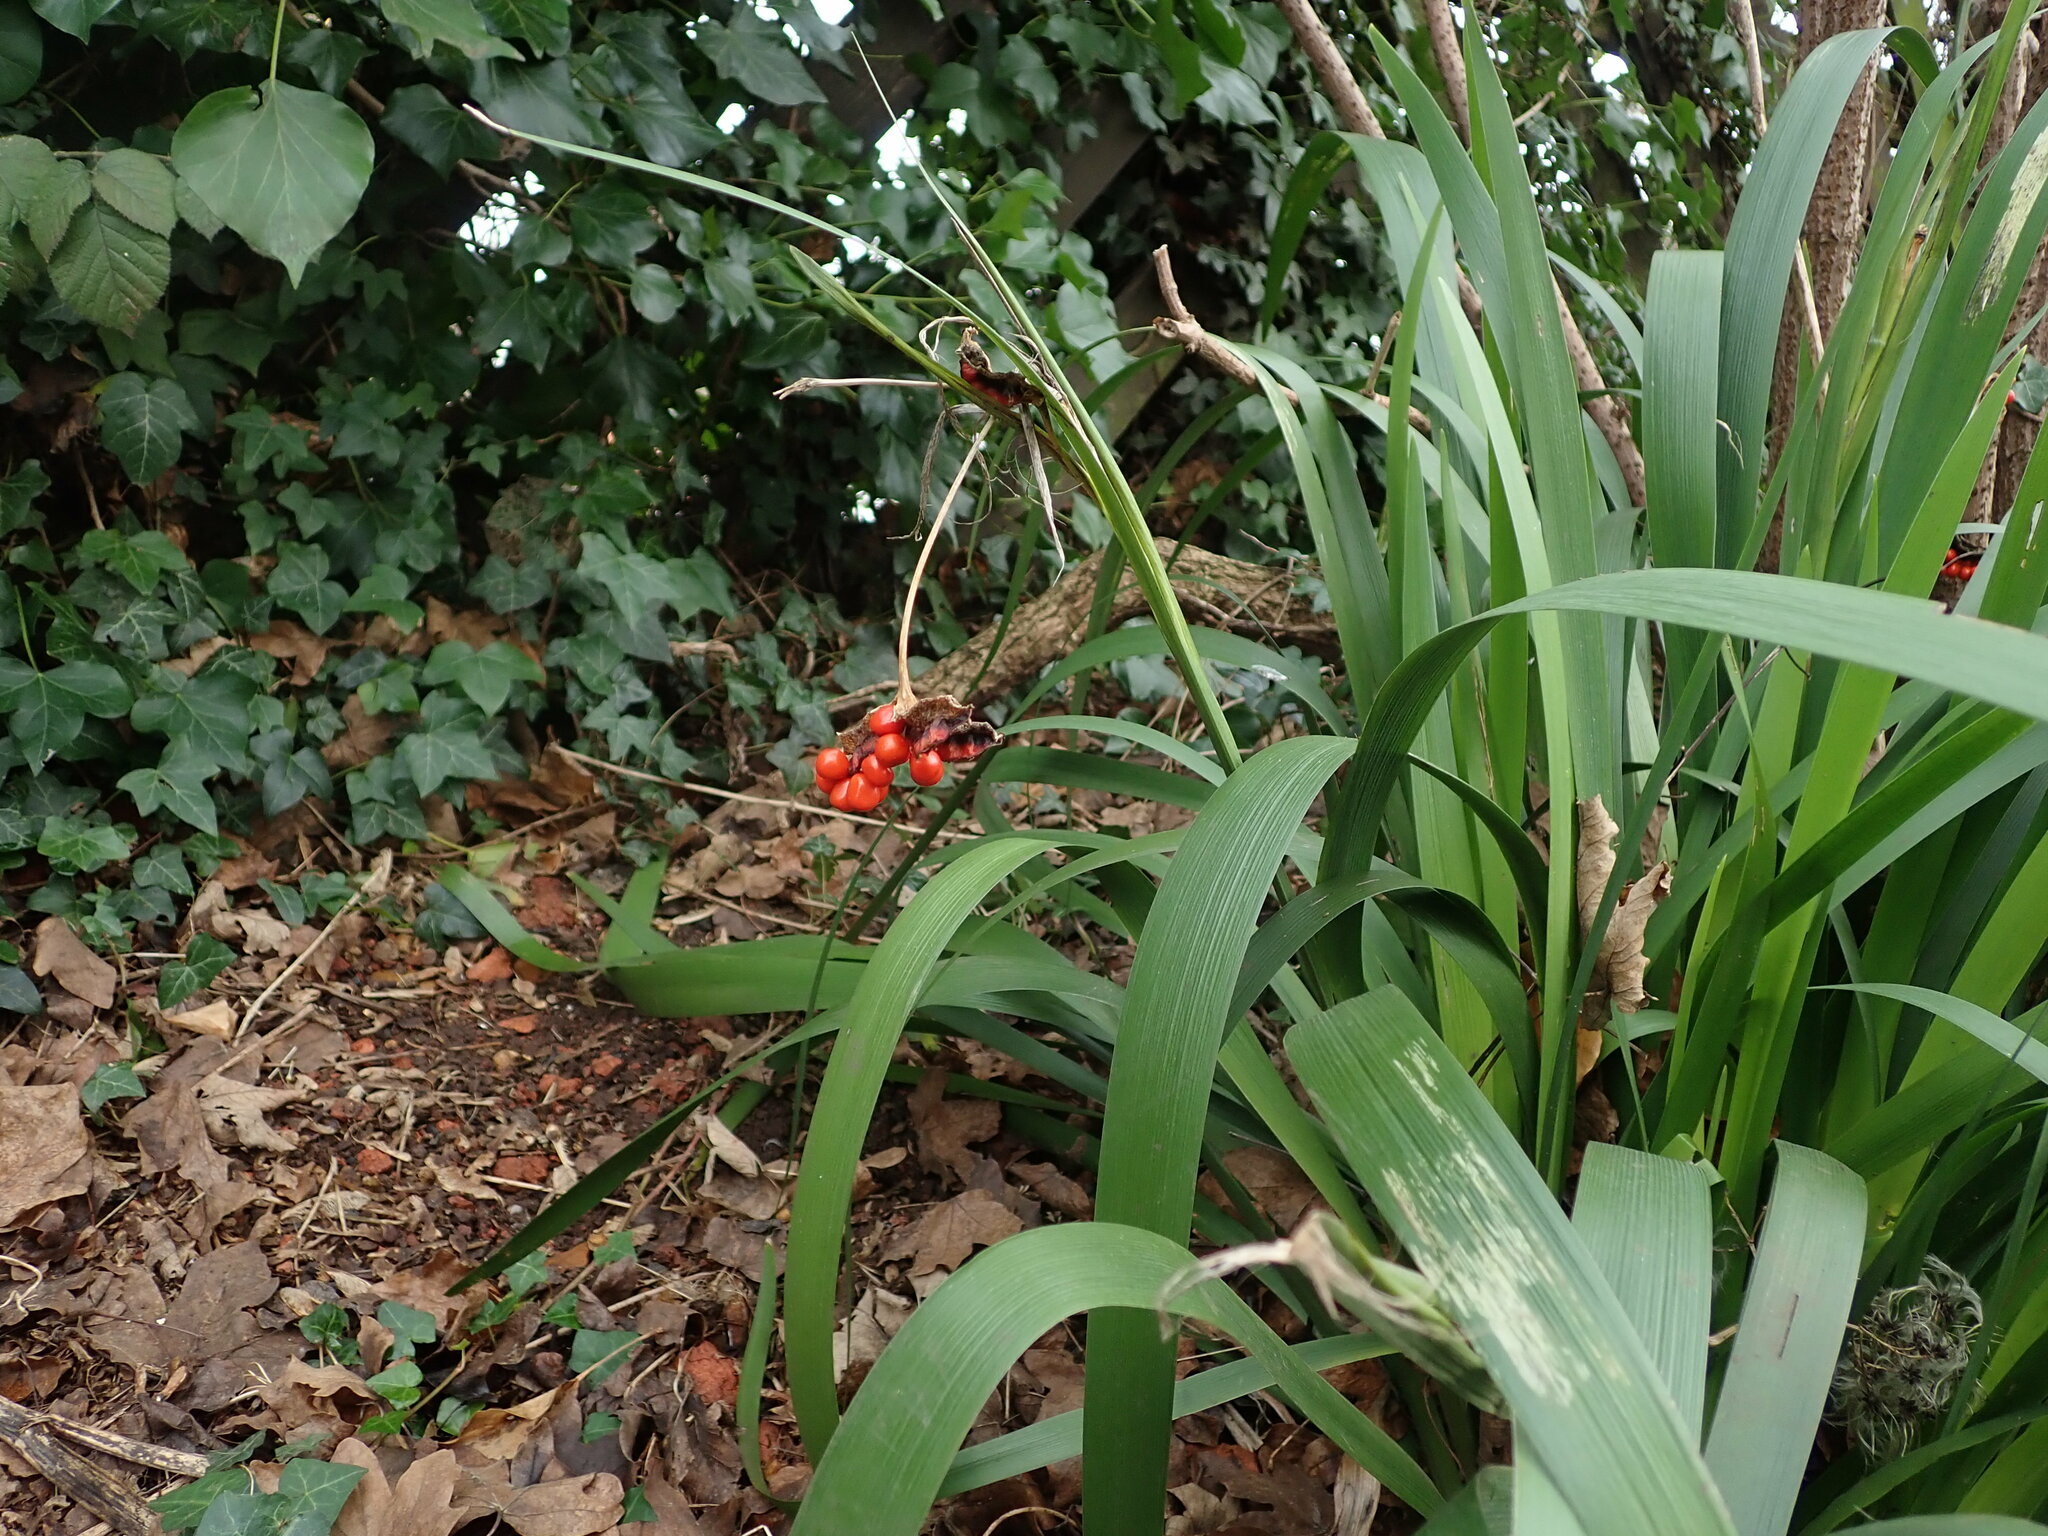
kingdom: Plantae
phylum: Tracheophyta
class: Liliopsida
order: Asparagales
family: Iridaceae
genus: Iris
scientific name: Iris foetidissima
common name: Stinking iris
